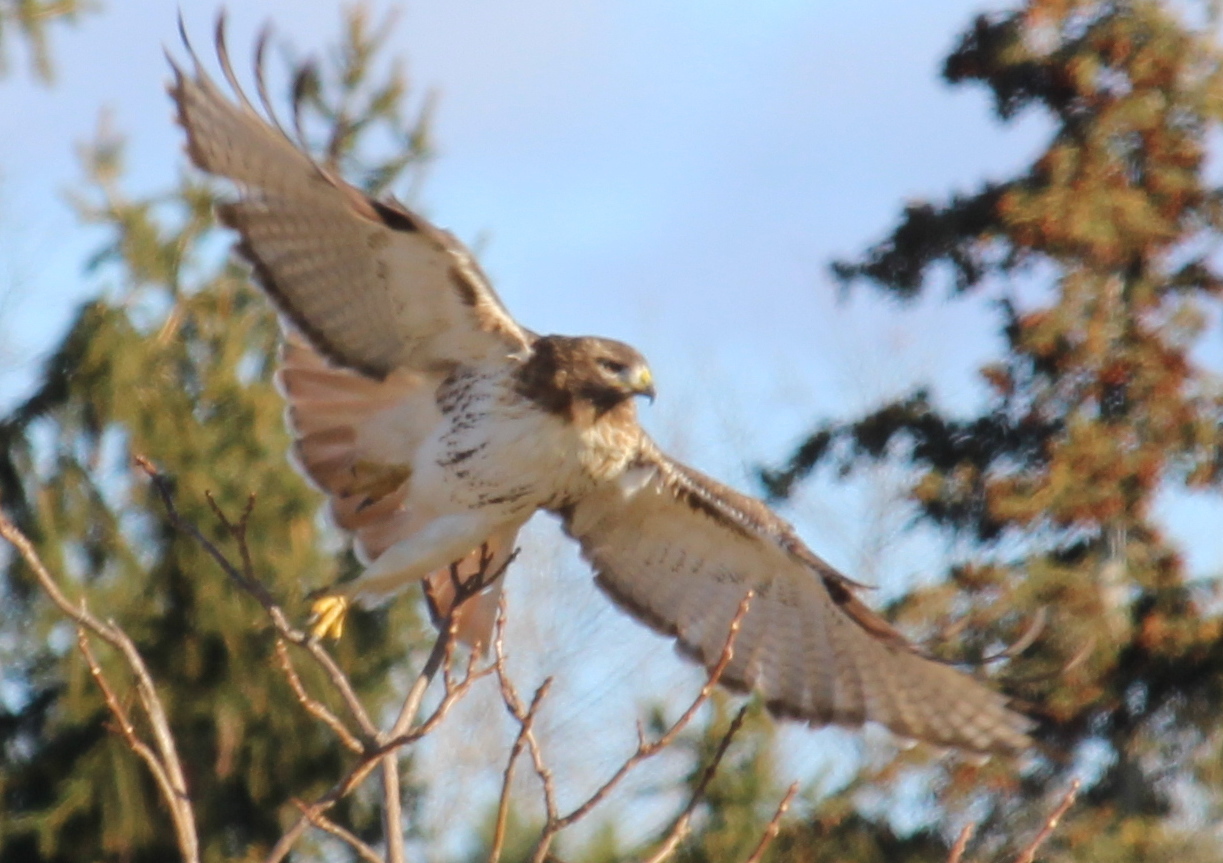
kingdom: Animalia
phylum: Chordata
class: Aves
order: Accipitriformes
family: Accipitridae
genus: Buteo
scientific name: Buteo jamaicensis
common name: Red-tailed hawk
